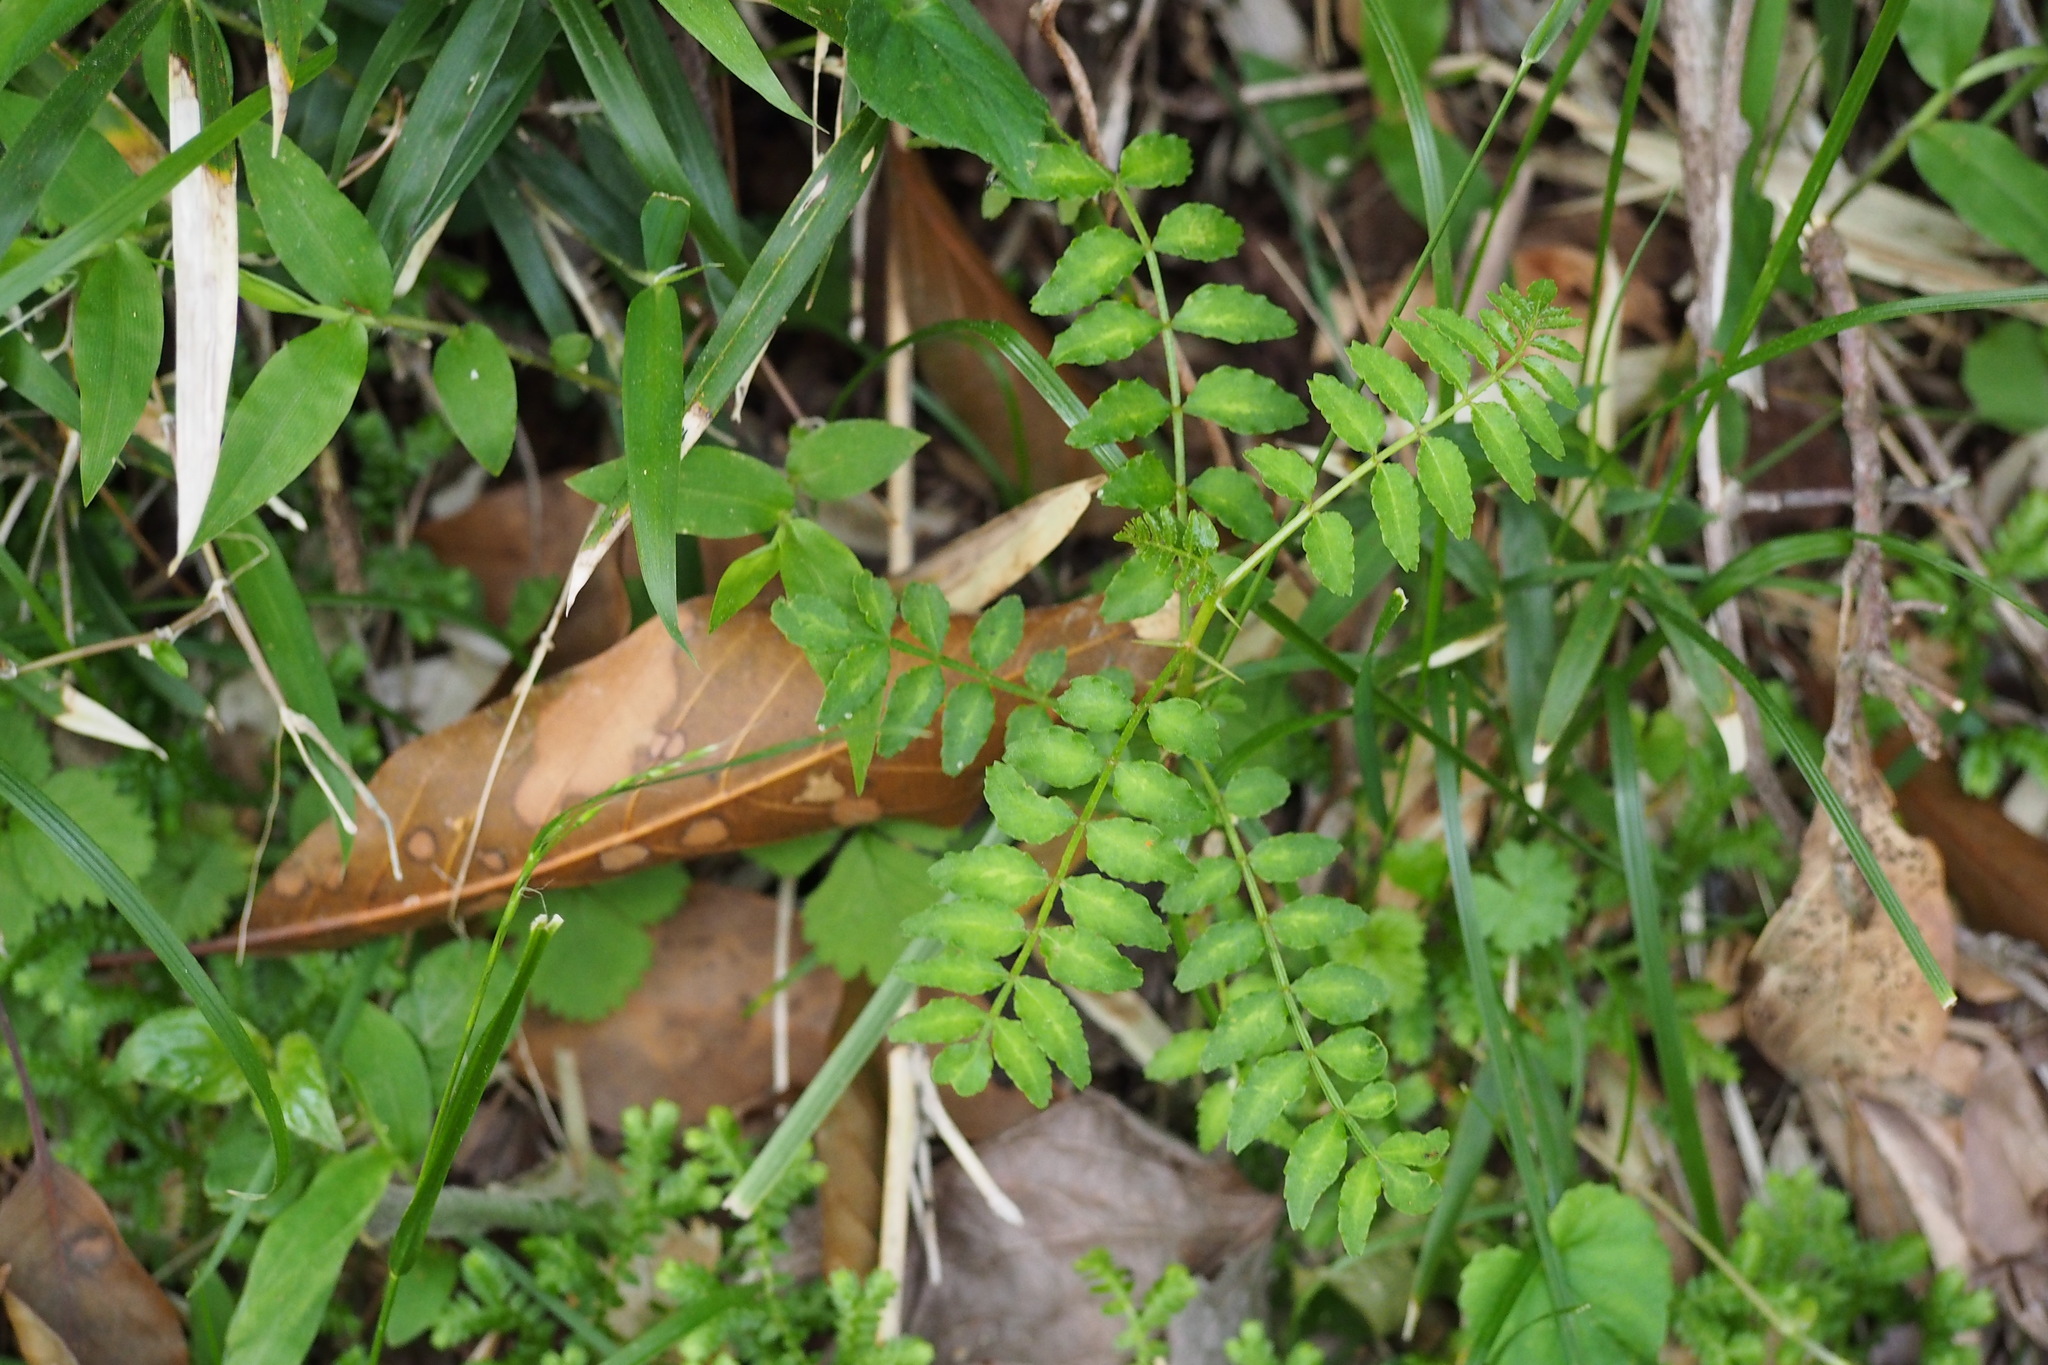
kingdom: Plantae
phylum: Tracheophyta
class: Magnoliopsida
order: Sapindales
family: Rutaceae
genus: Zanthoxylum
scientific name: Zanthoxylum piperitum
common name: Japanese-pepper
